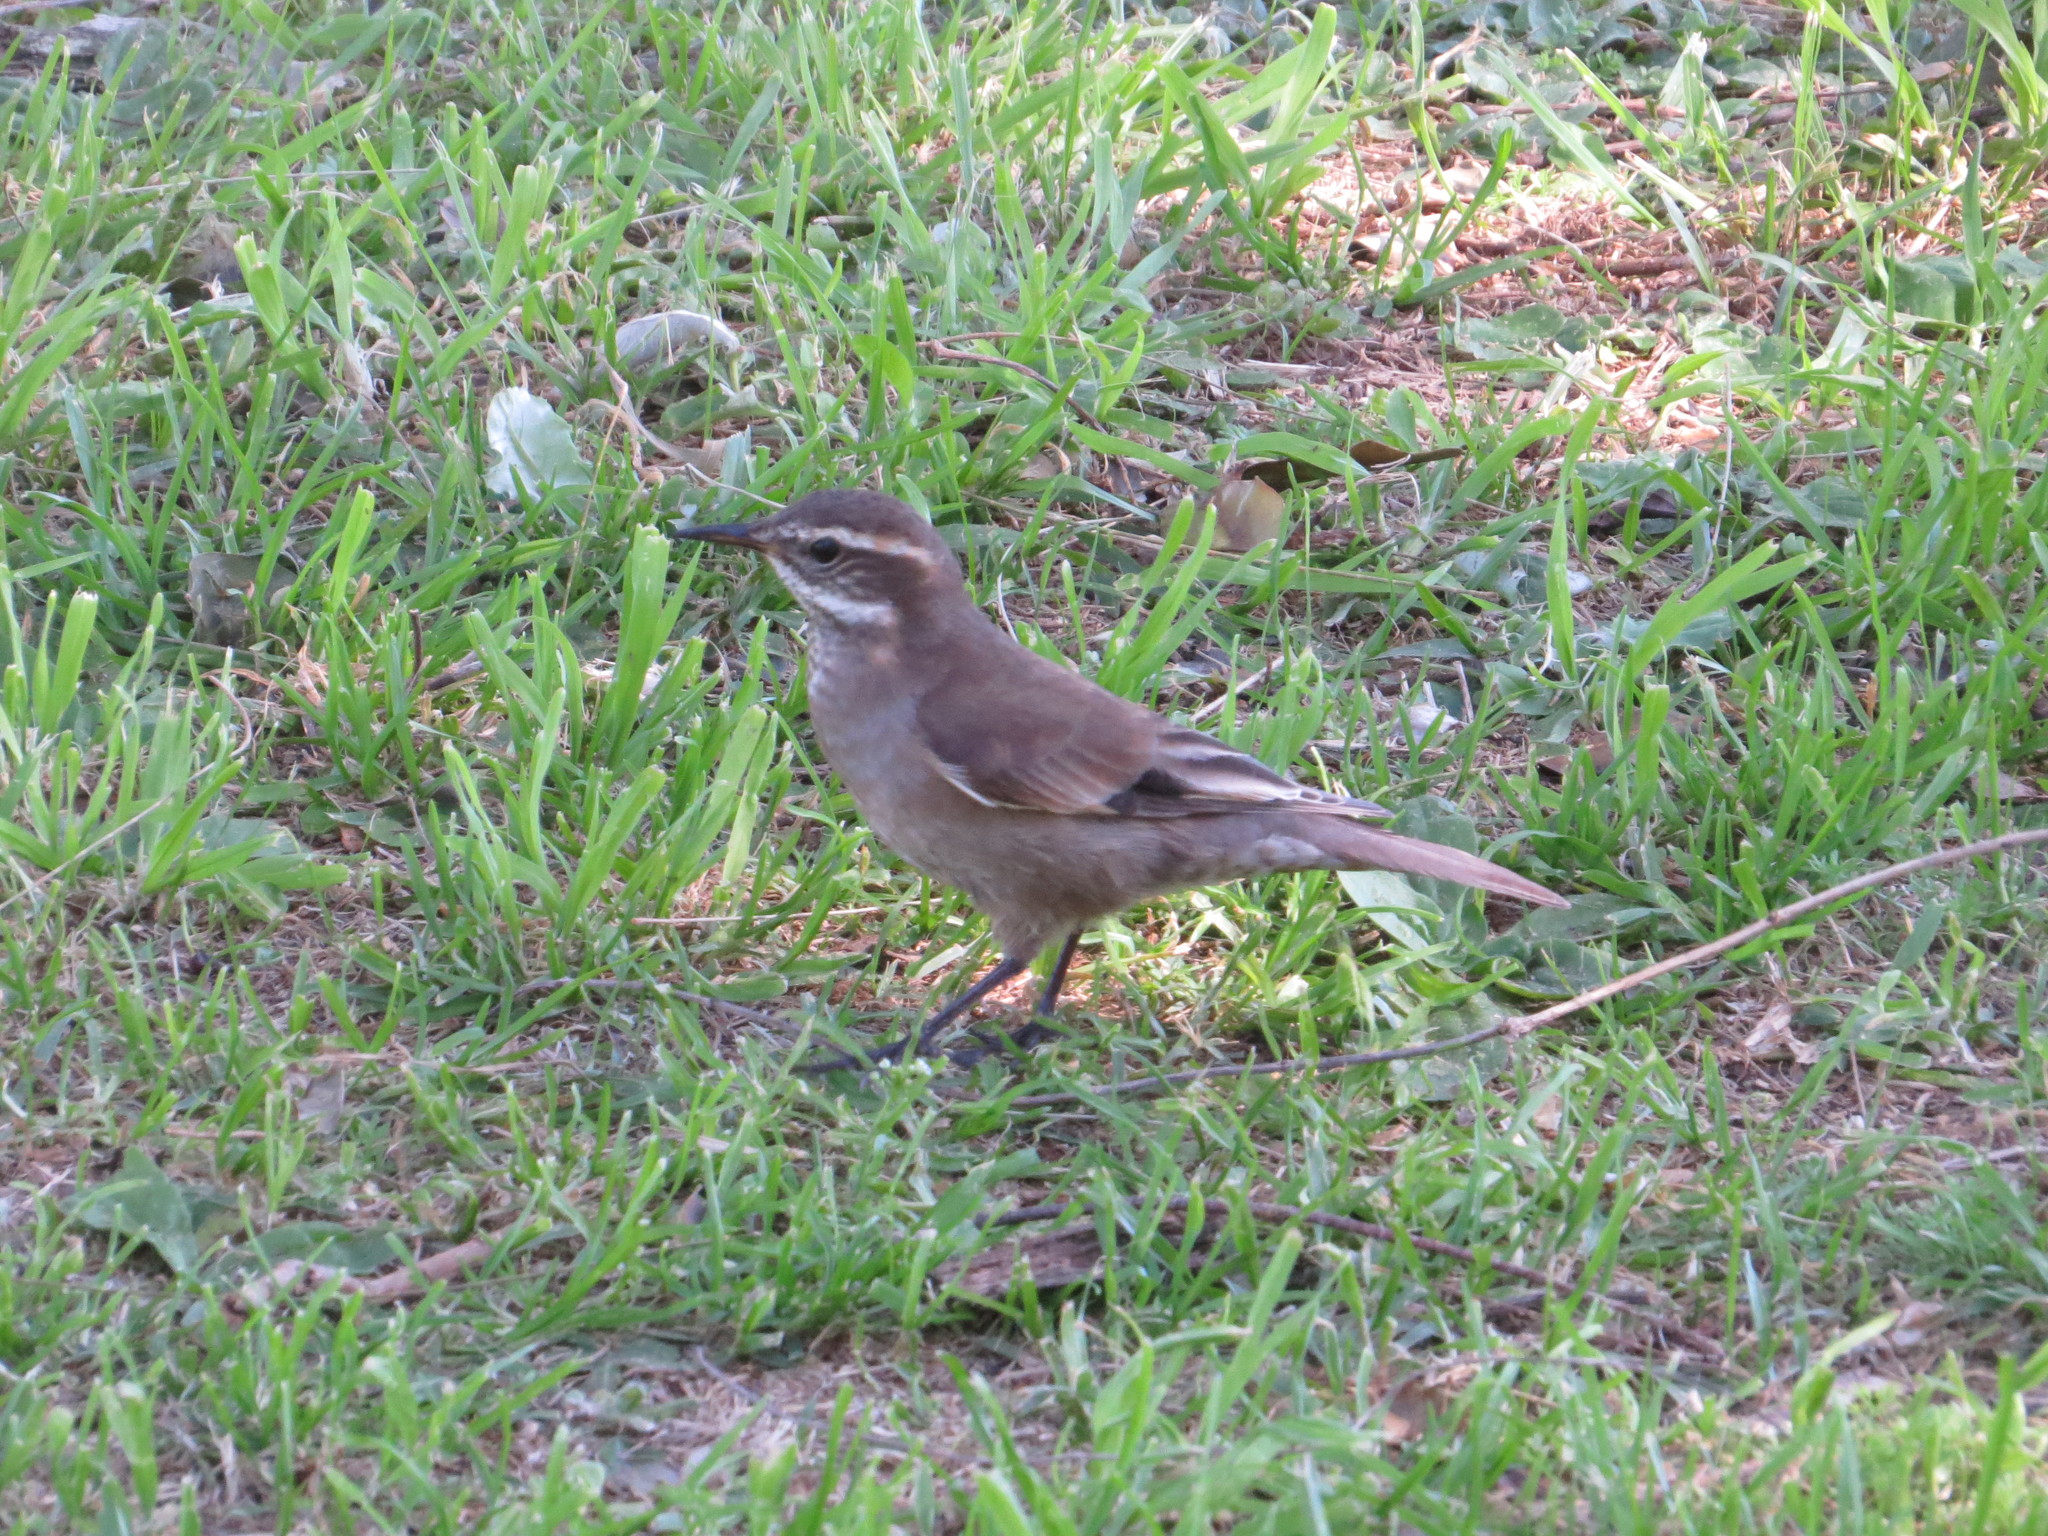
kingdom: Animalia
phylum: Chordata
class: Aves
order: Passeriformes
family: Furnariidae
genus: Cinclodes
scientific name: Cinclodes fuscus
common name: Buff-winged cinclodes
